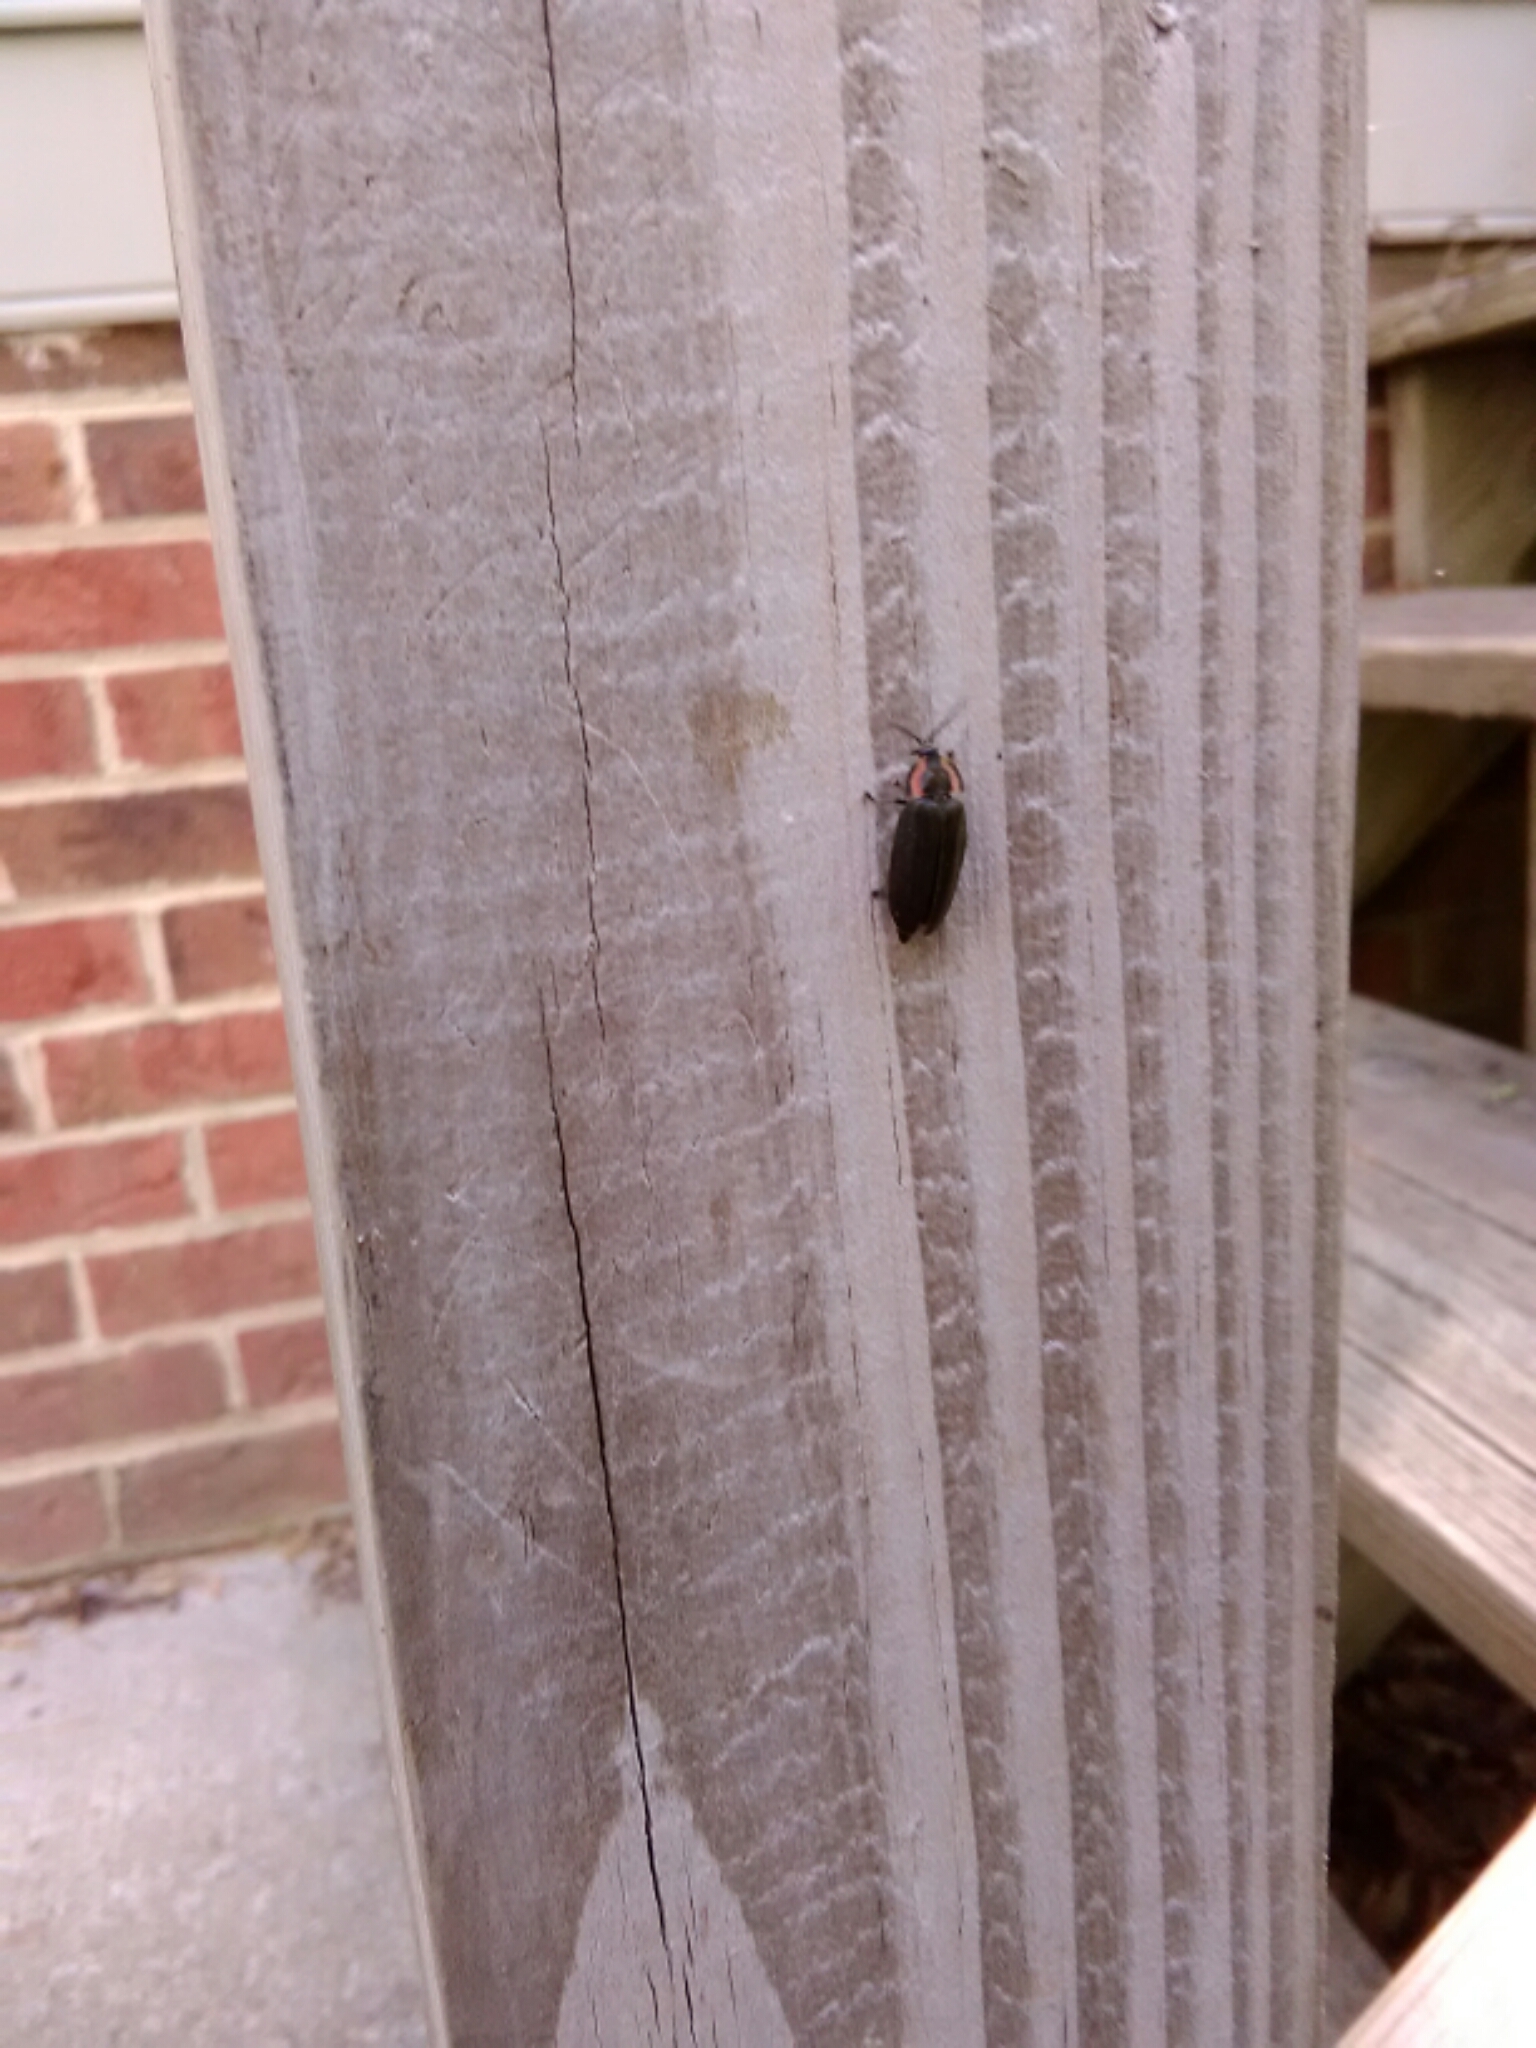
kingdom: Animalia
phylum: Arthropoda
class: Insecta
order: Coleoptera
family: Lampyridae
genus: Photinus
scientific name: Photinus corrusca
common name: Winter firefly
